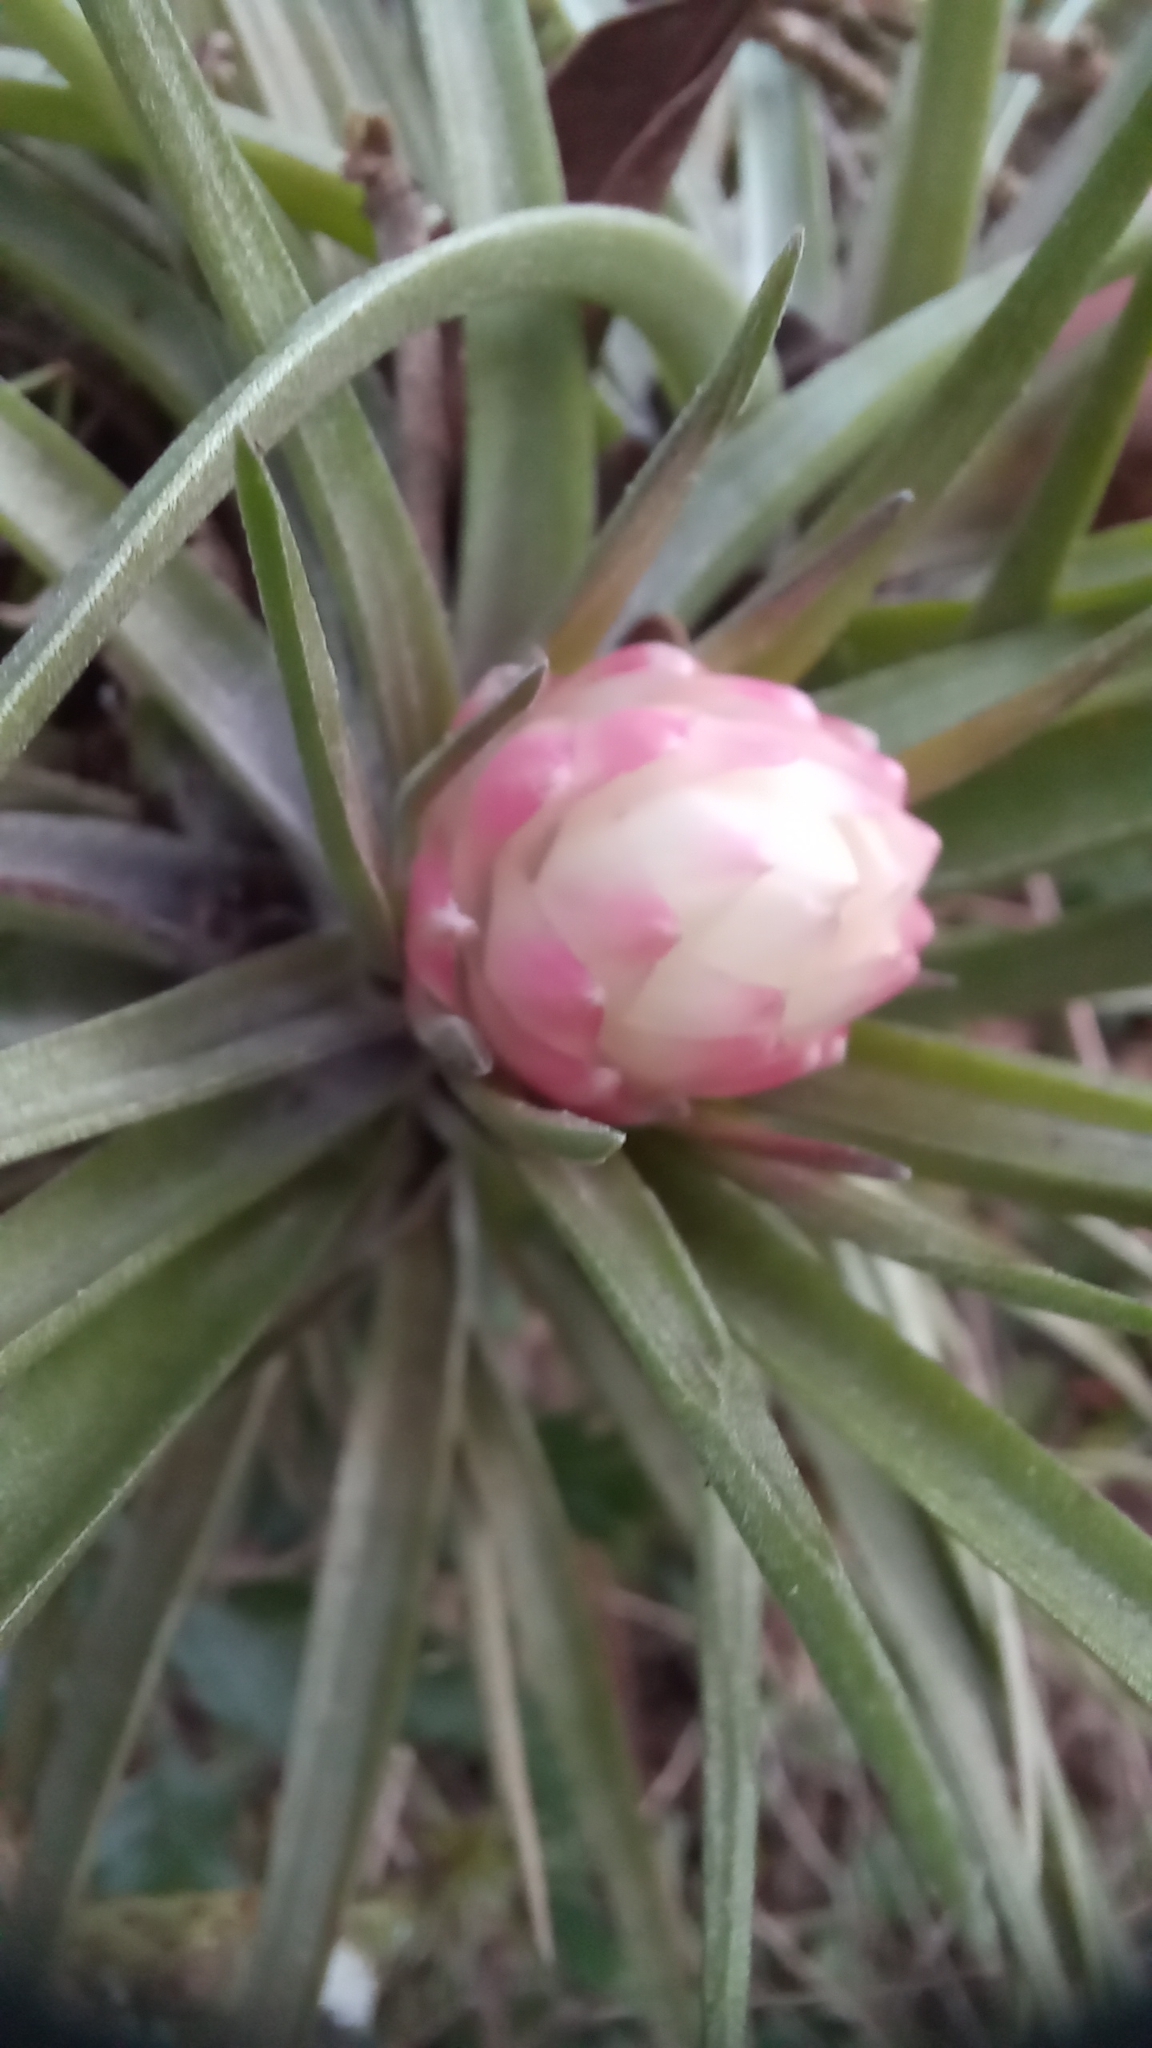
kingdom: Plantae
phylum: Tracheophyta
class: Liliopsida
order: Poales
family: Bromeliaceae
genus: Tillandsia
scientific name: Tillandsia stricta
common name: Airplant
